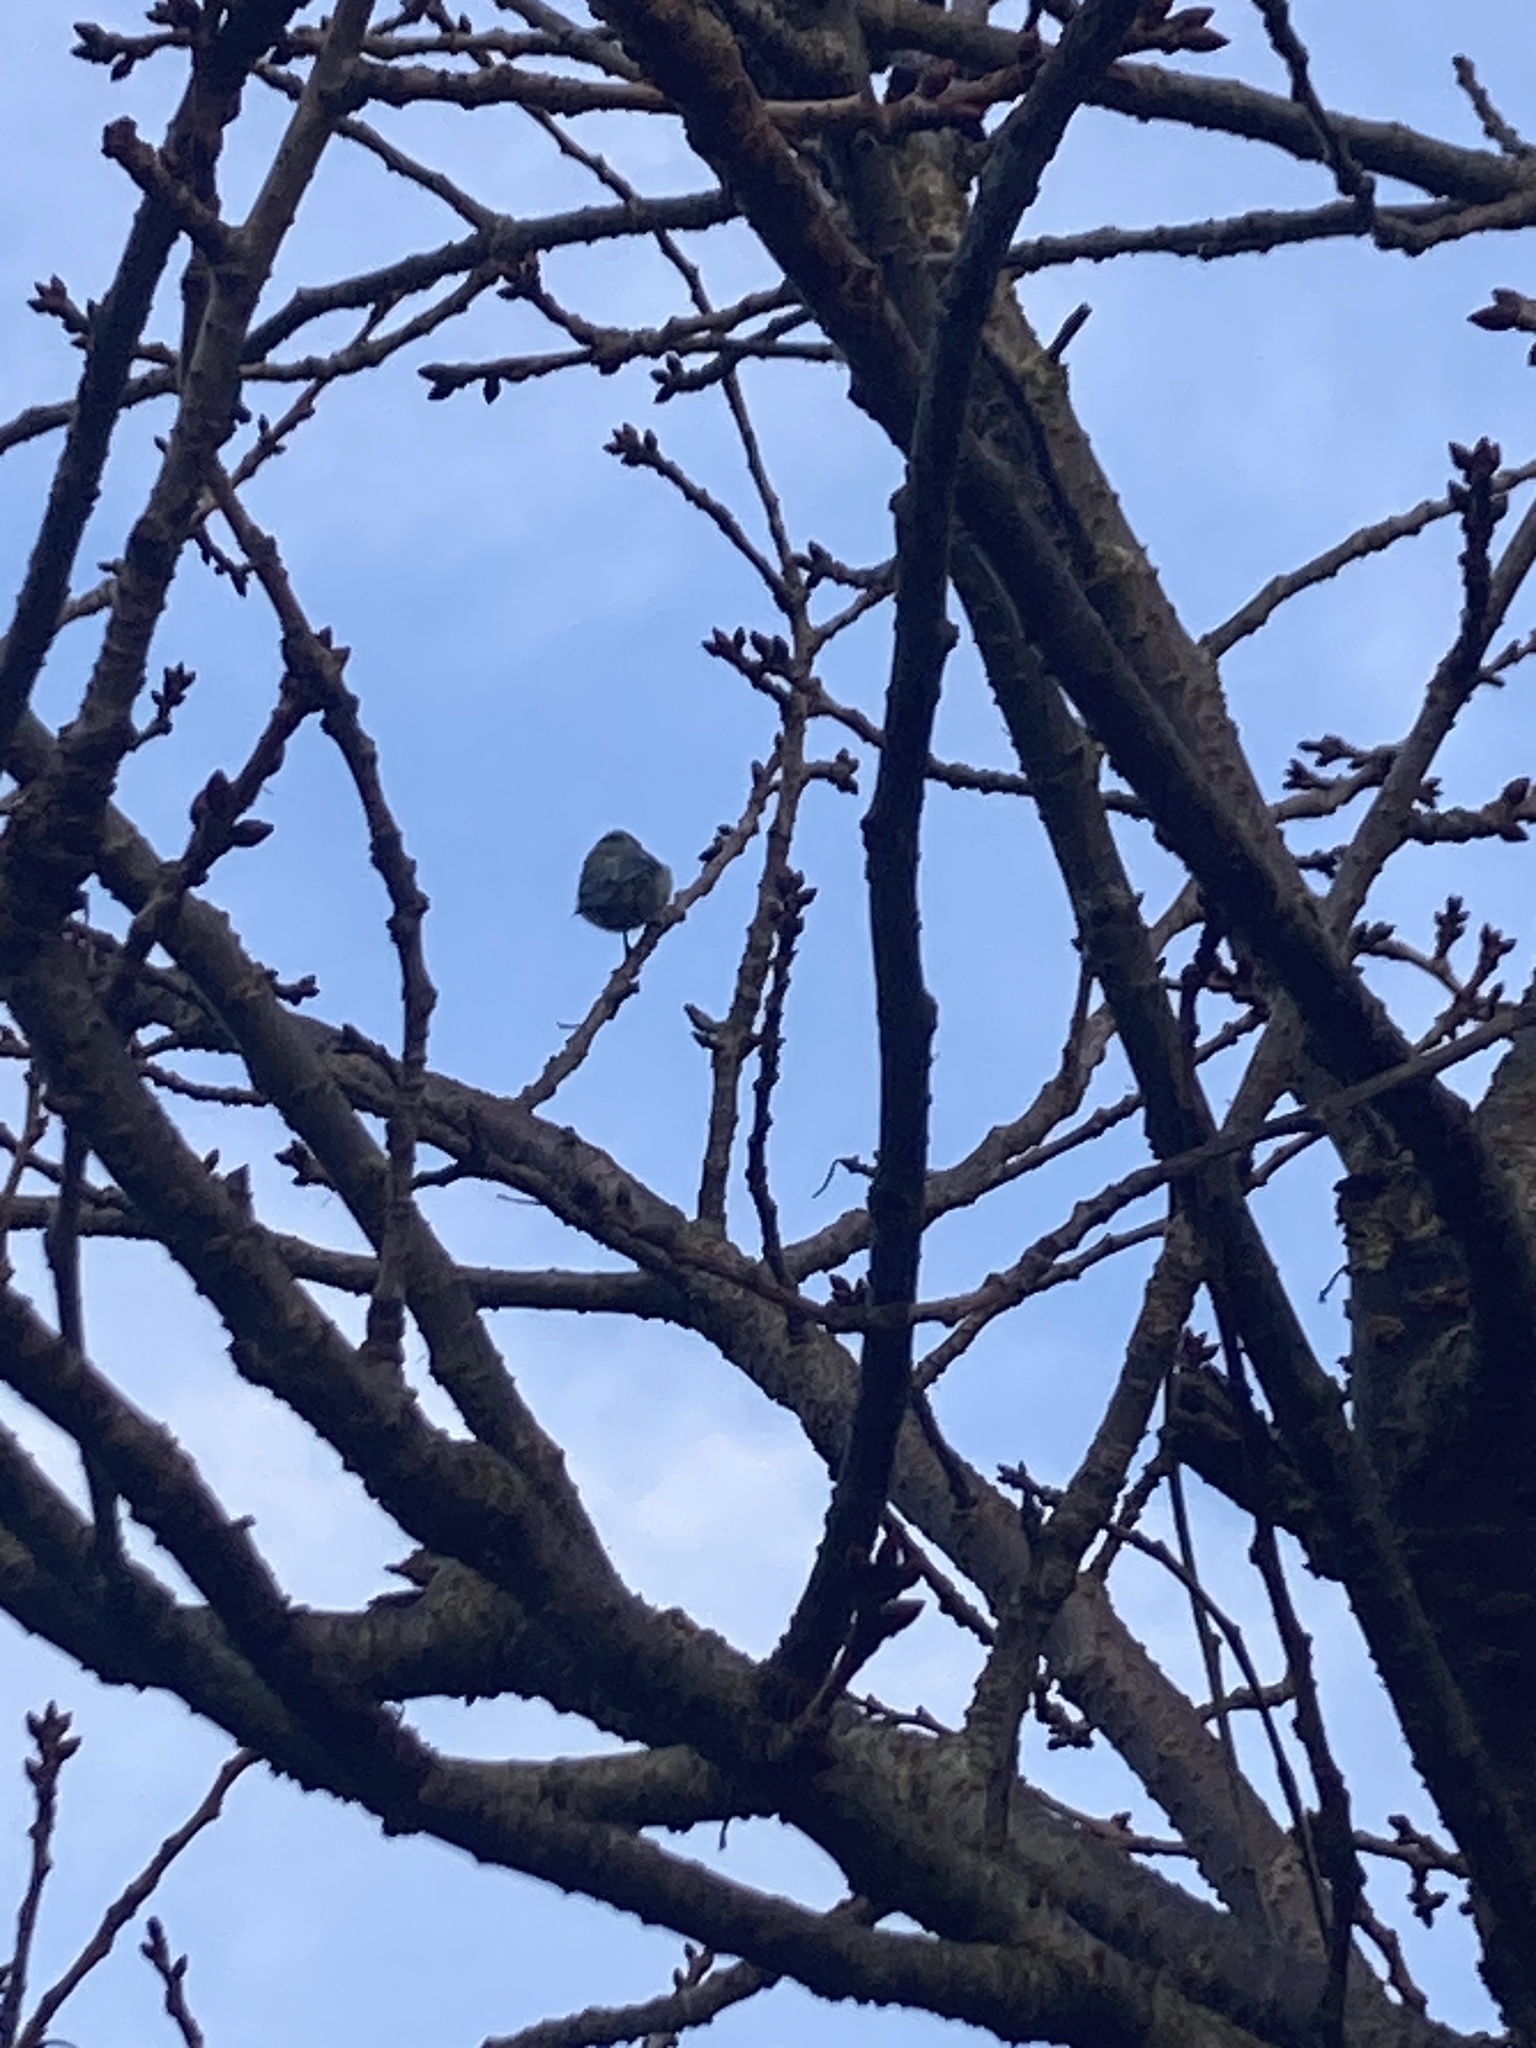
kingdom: Animalia
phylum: Chordata
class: Aves
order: Passeriformes
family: Paridae
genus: Cyanistes
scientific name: Cyanistes caeruleus
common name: Eurasian blue tit
